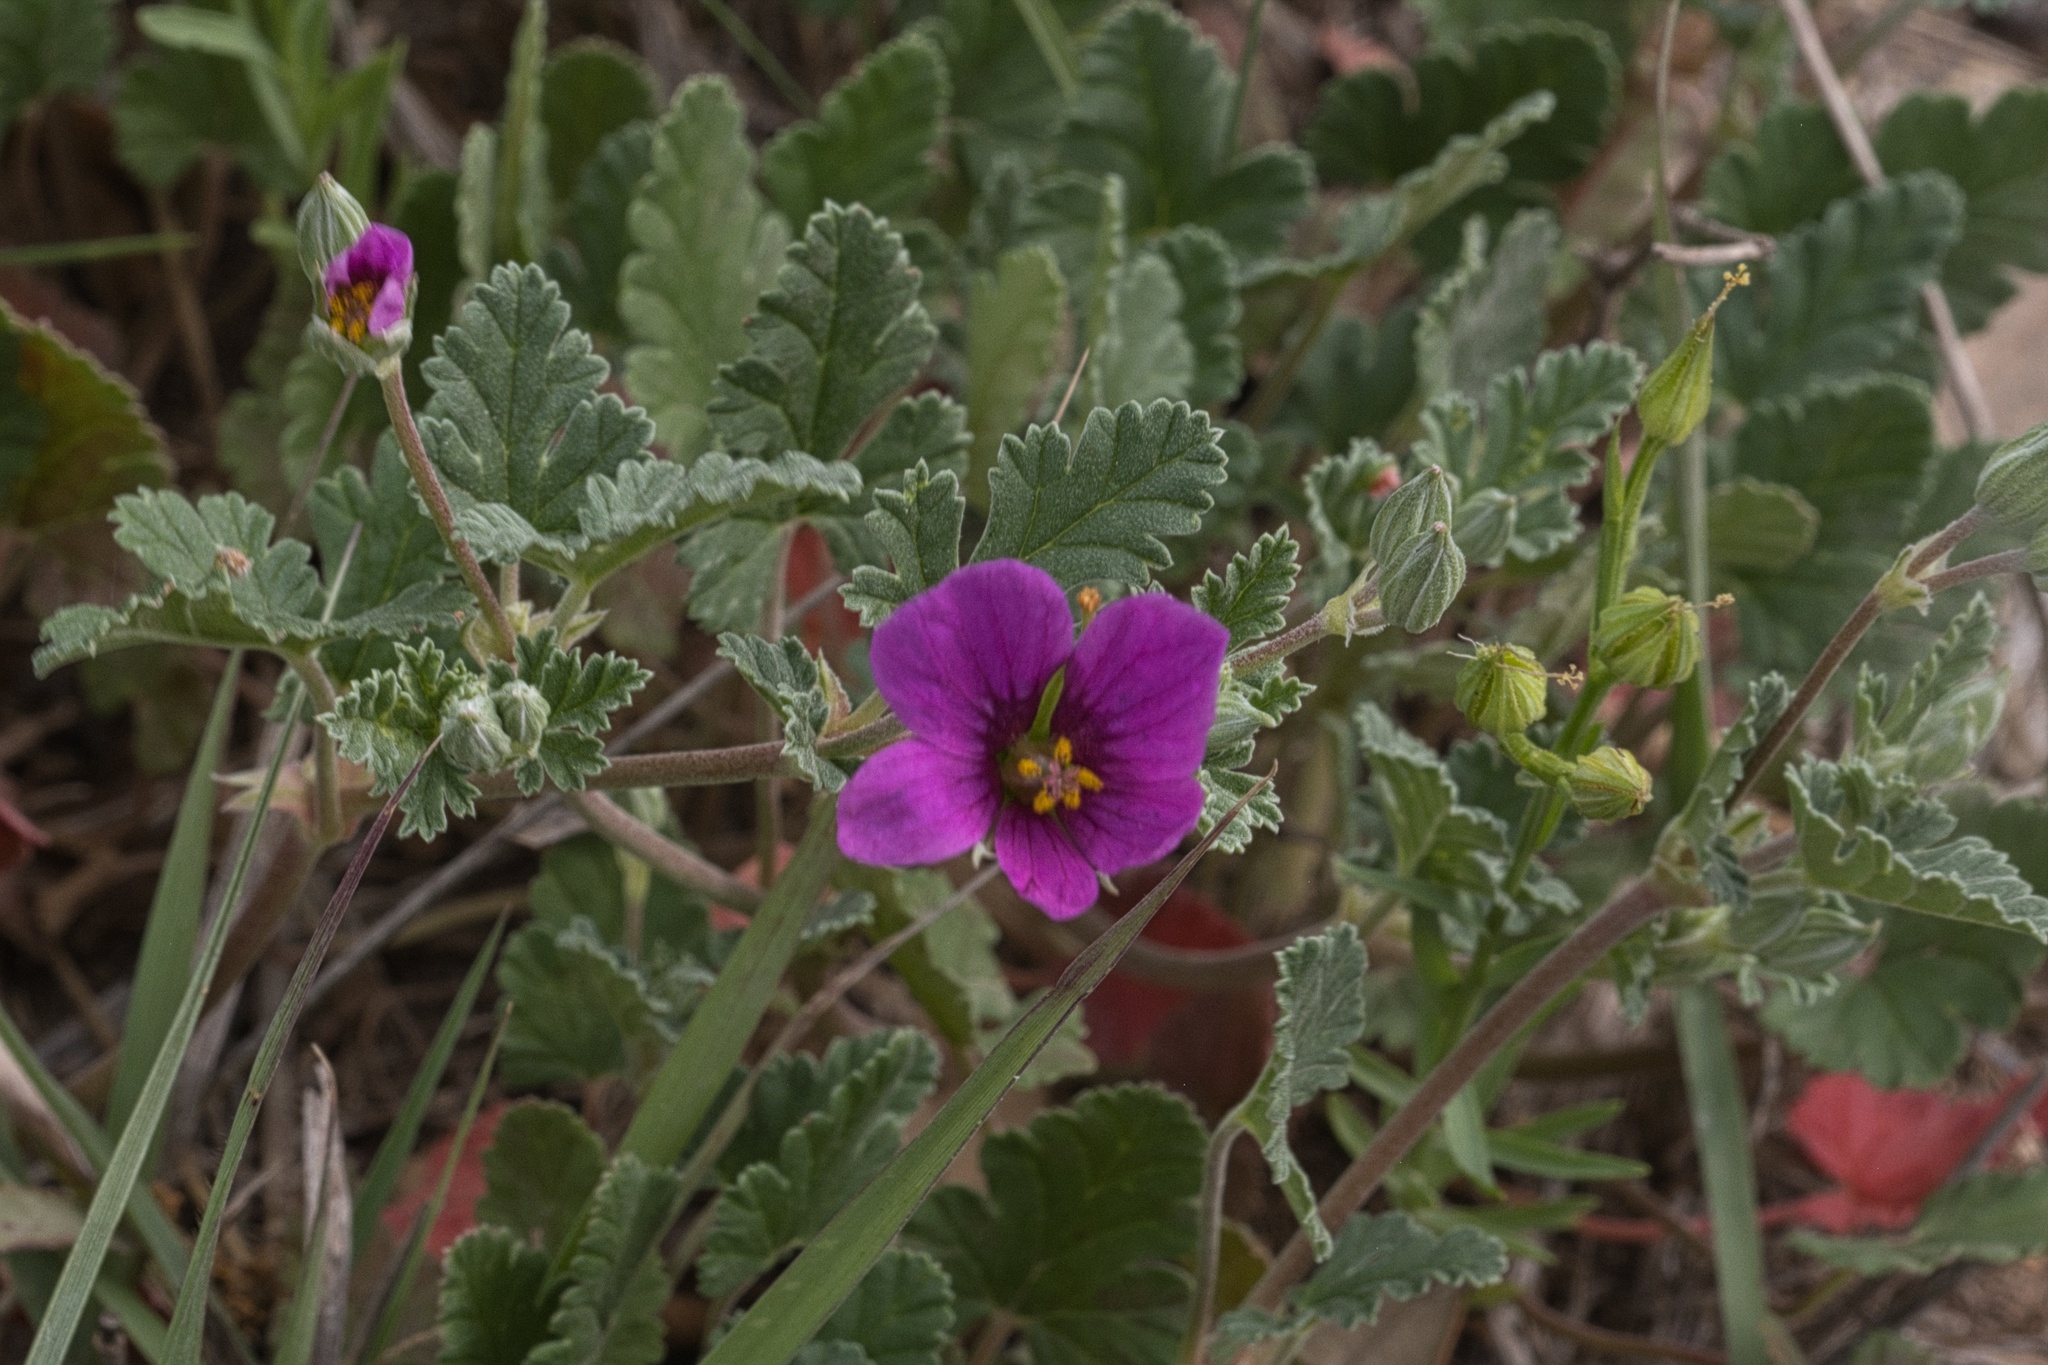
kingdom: Plantae
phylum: Tracheophyta
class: Magnoliopsida
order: Geraniales
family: Geraniaceae
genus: Erodium
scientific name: Erodium texanum
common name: Texas stork's-bill
